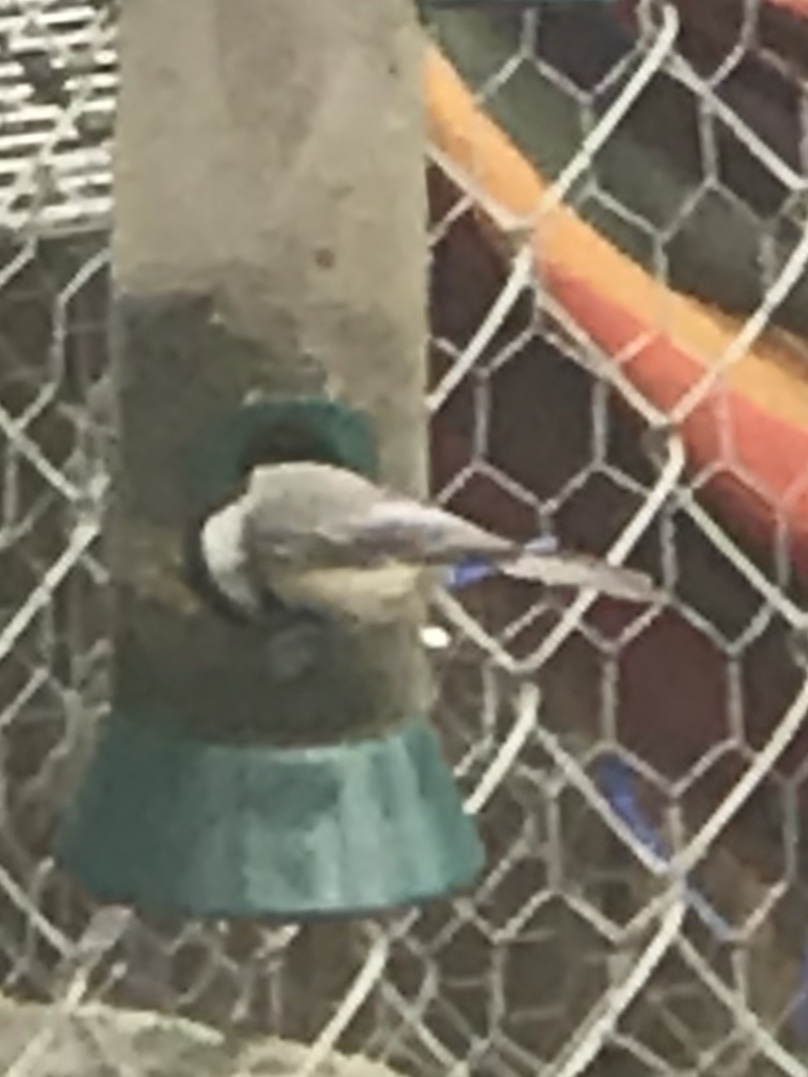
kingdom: Animalia
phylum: Chordata
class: Aves
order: Passeriformes
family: Paridae
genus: Poecile
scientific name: Poecile carolinensis
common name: Carolina chickadee
